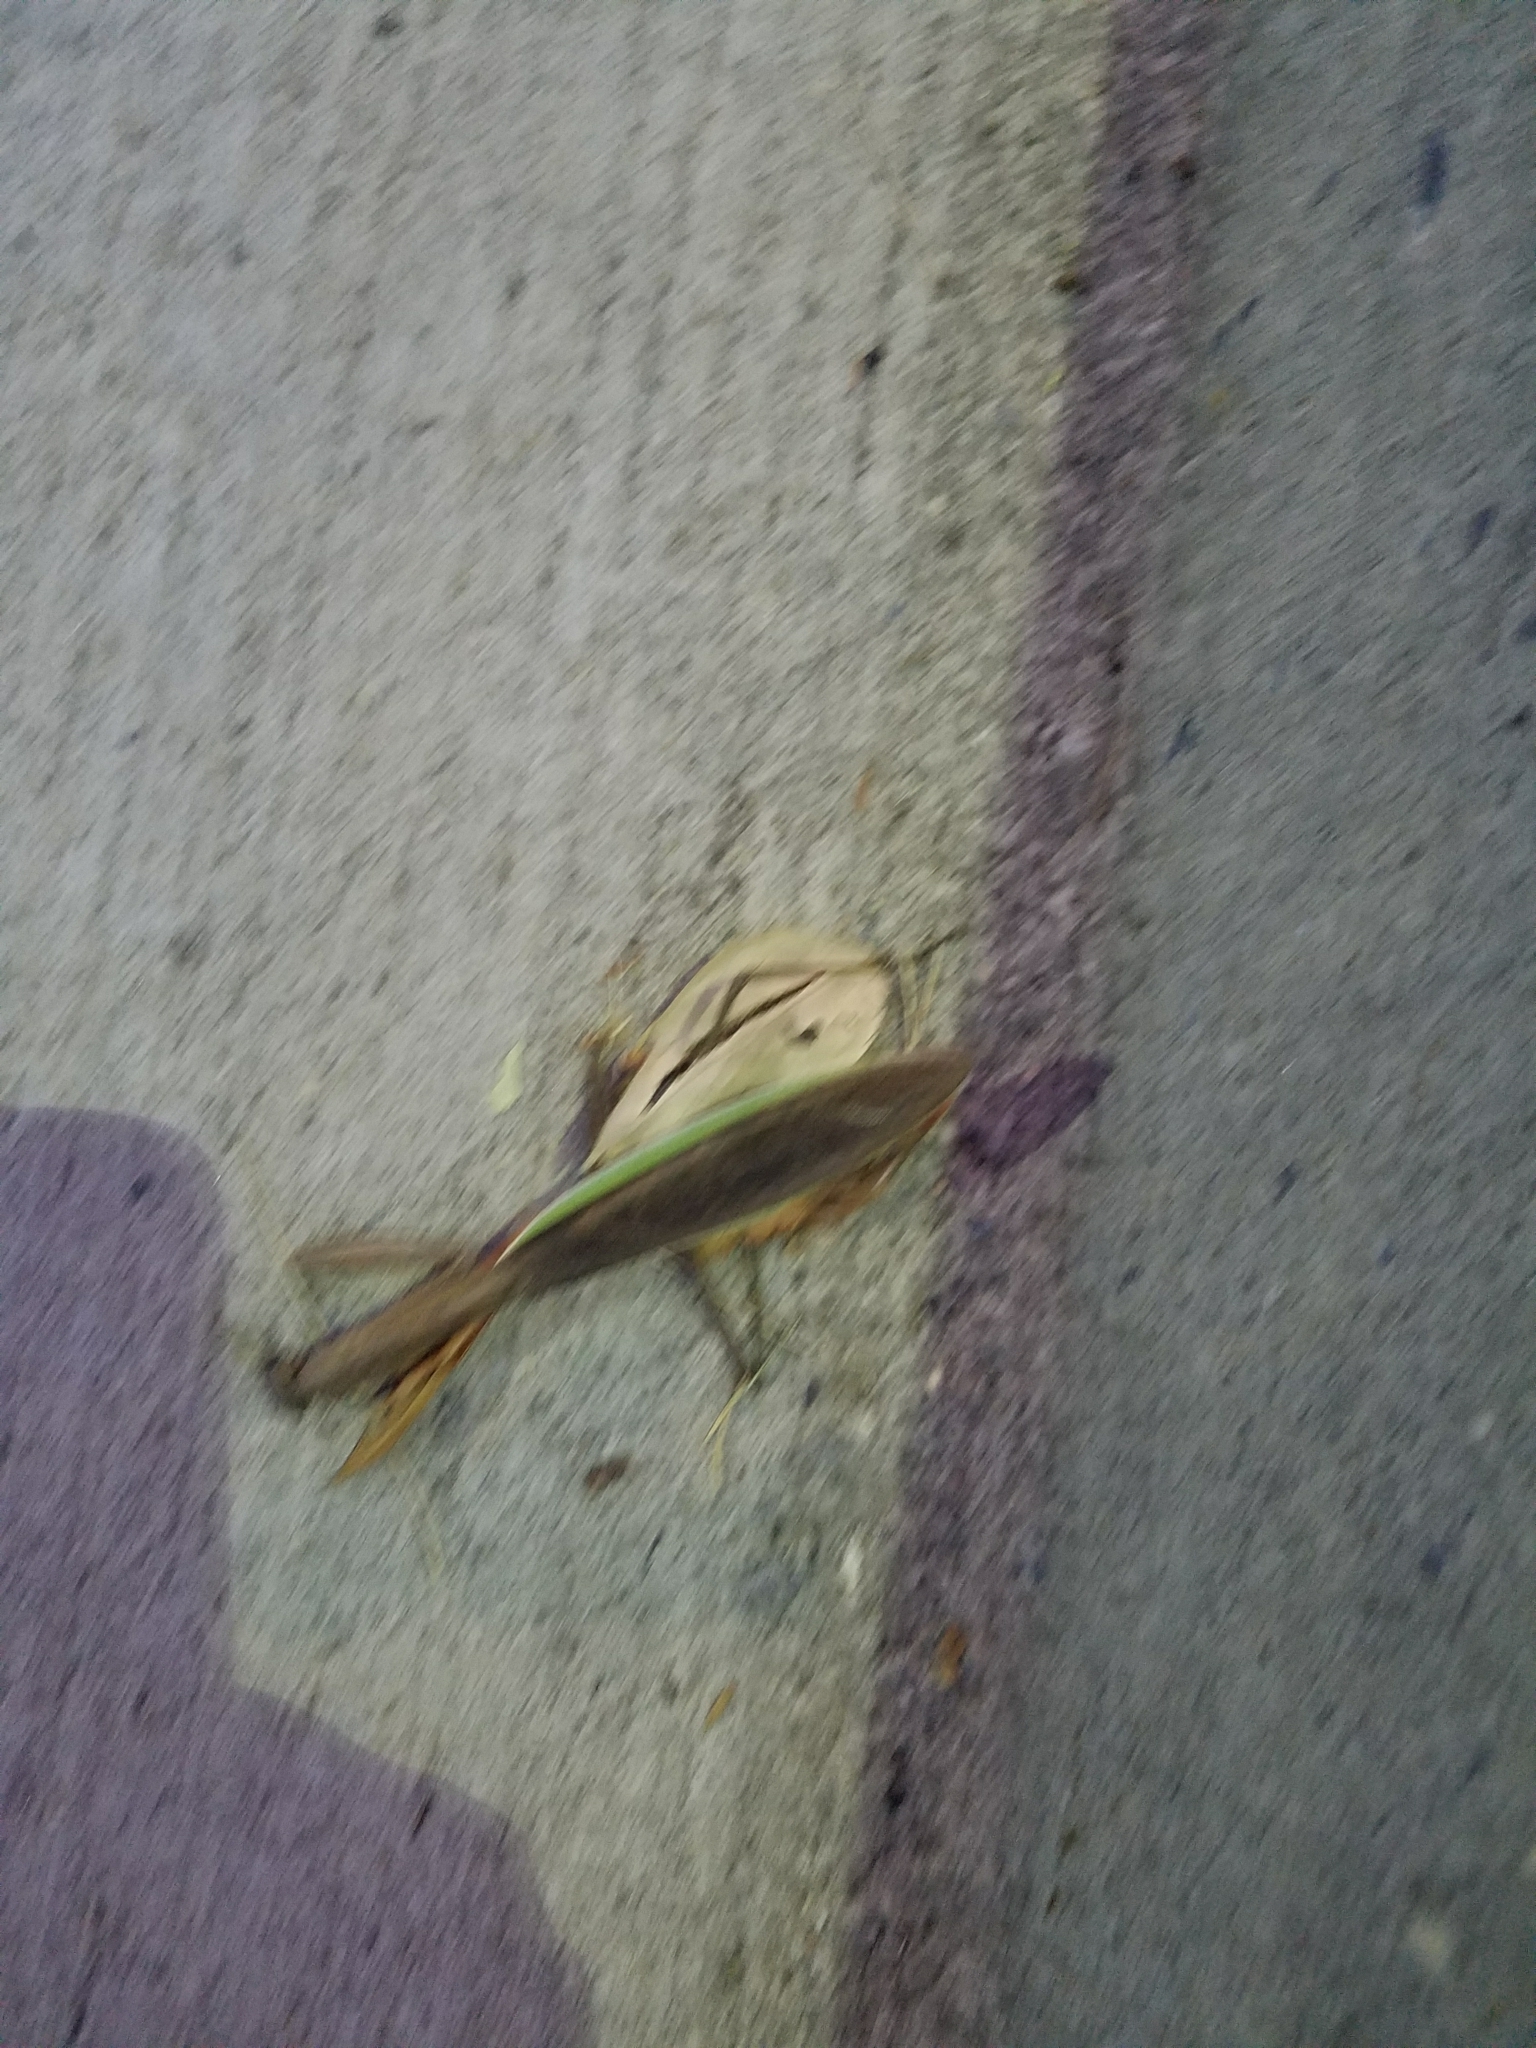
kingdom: Animalia
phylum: Arthropoda
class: Insecta
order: Mantodea
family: Mantidae
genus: Tenodera
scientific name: Tenodera sinensis
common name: Chinese mantis
